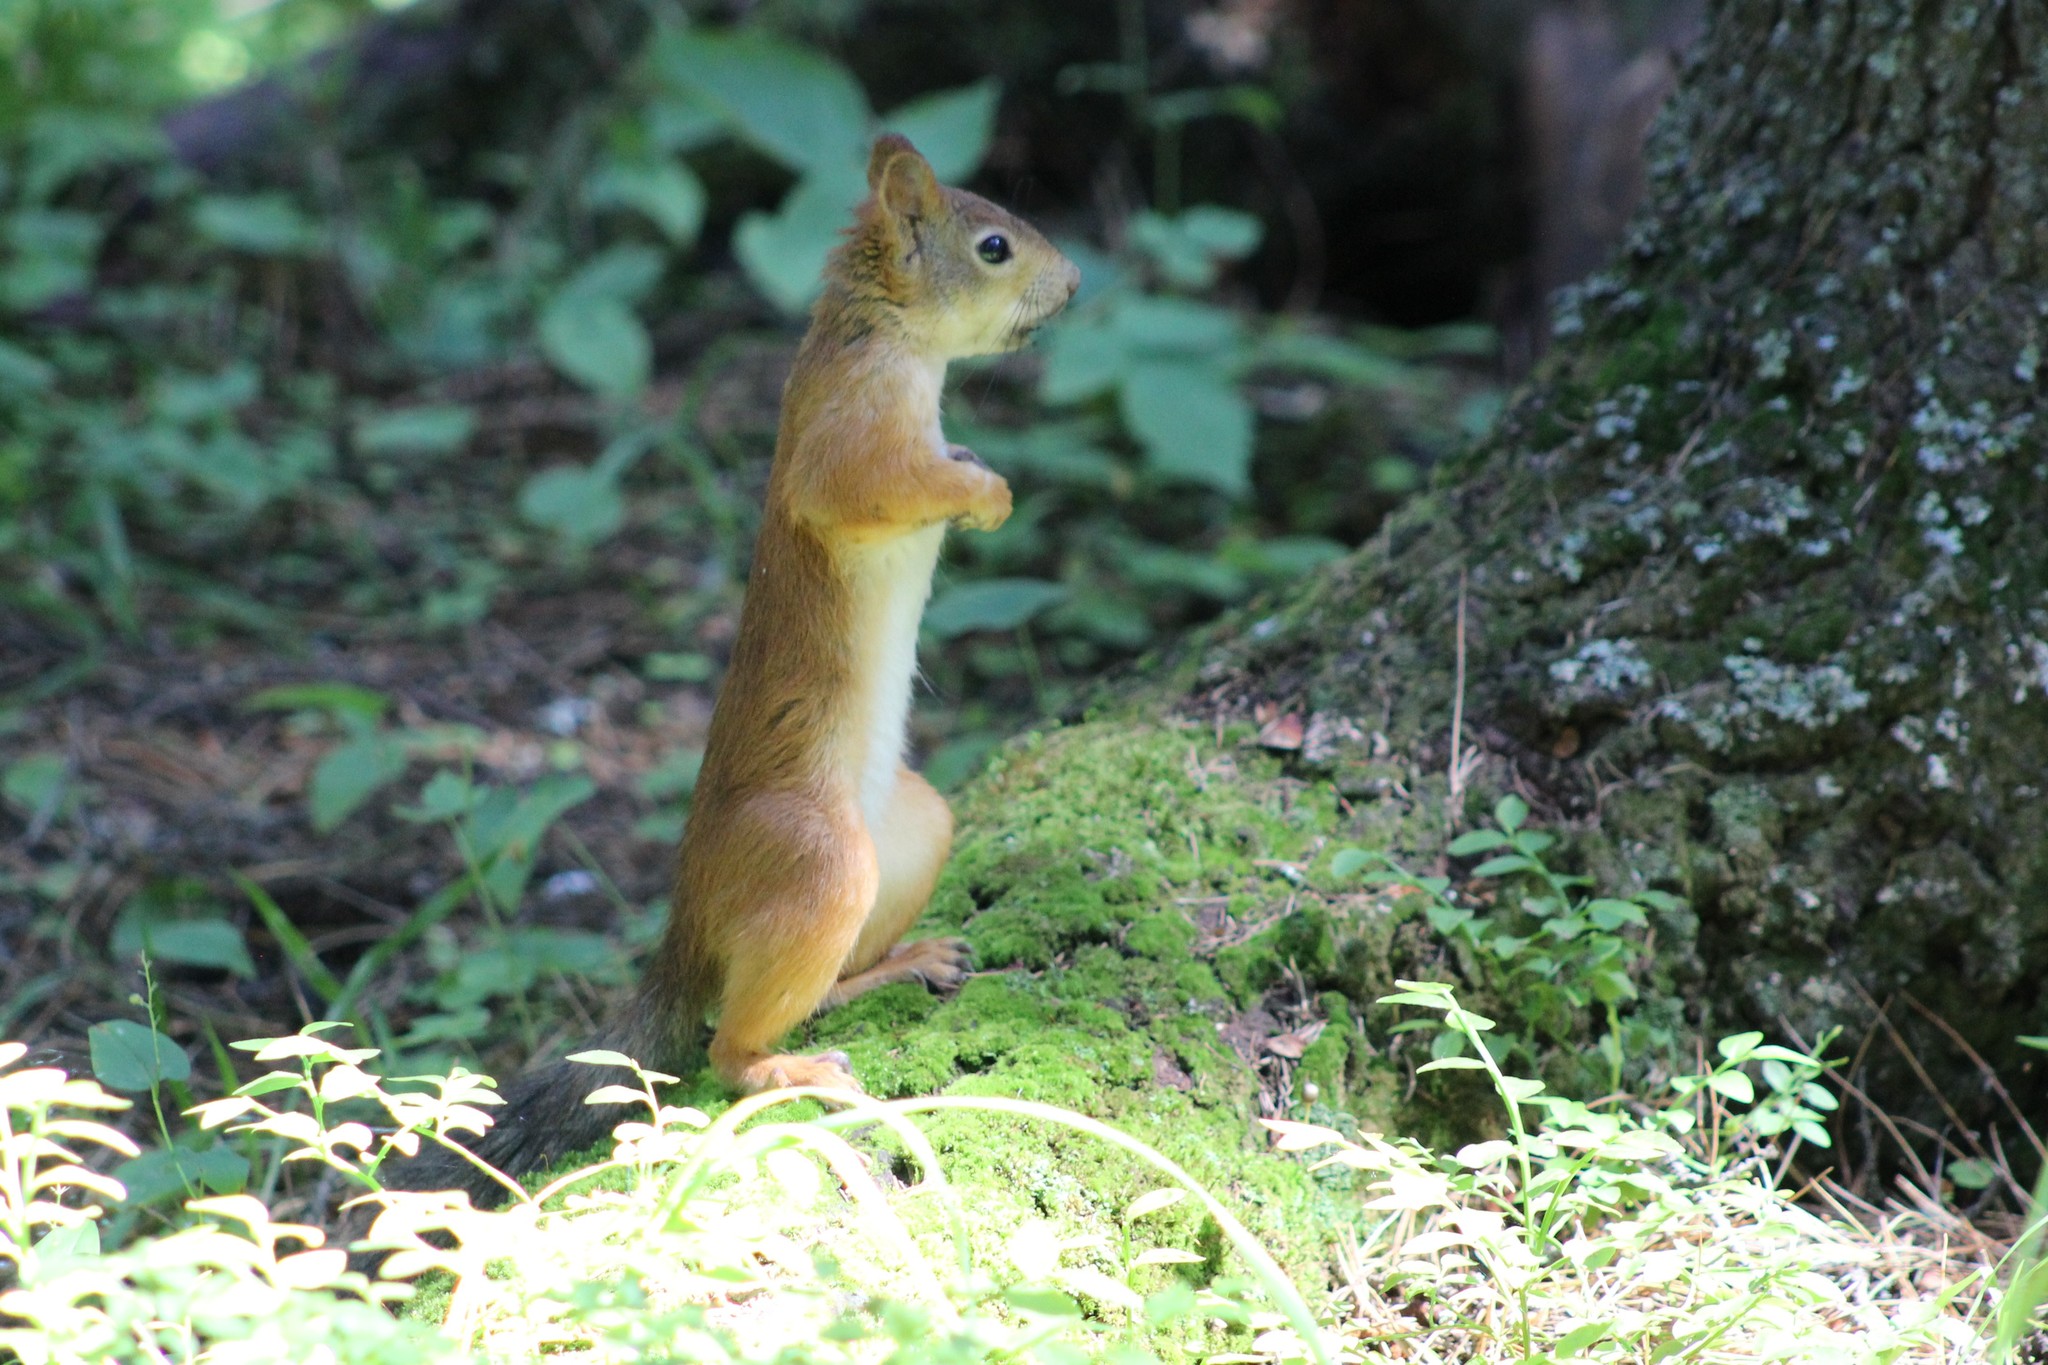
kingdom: Animalia
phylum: Chordata
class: Mammalia
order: Rodentia
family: Sciuridae
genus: Sciurus
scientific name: Sciurus vulgaris
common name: Eurasian red squirrel
